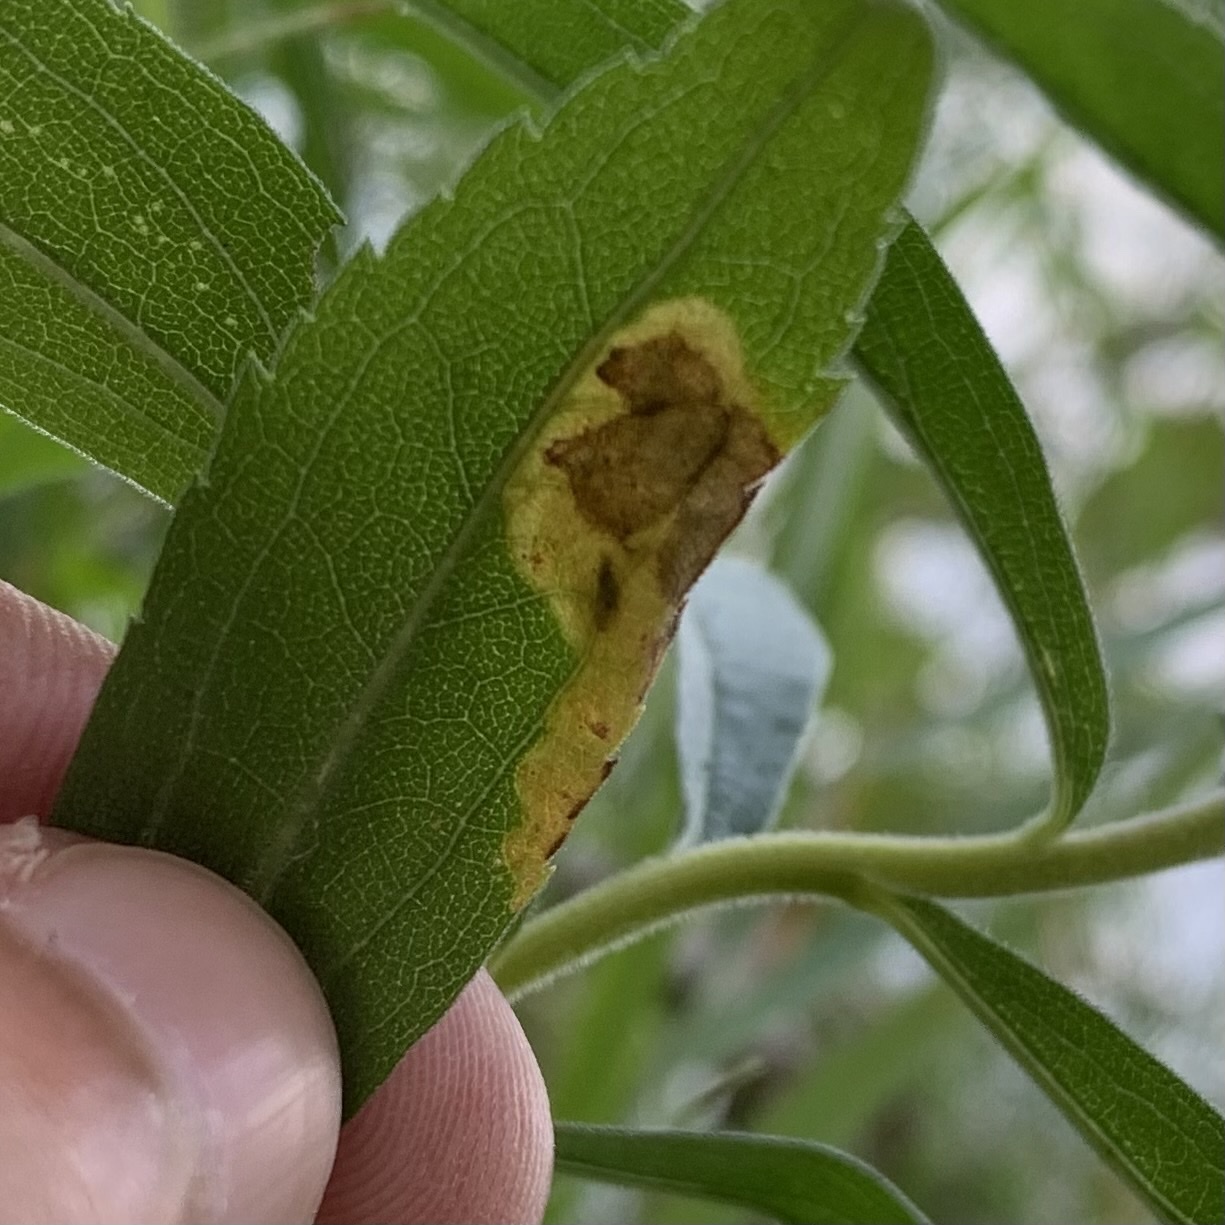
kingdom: Animalia
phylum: Arthropoda
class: Insecta
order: Diptera
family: Agromyzidae
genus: Nemorimyza
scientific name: Nemorimyza posticata
